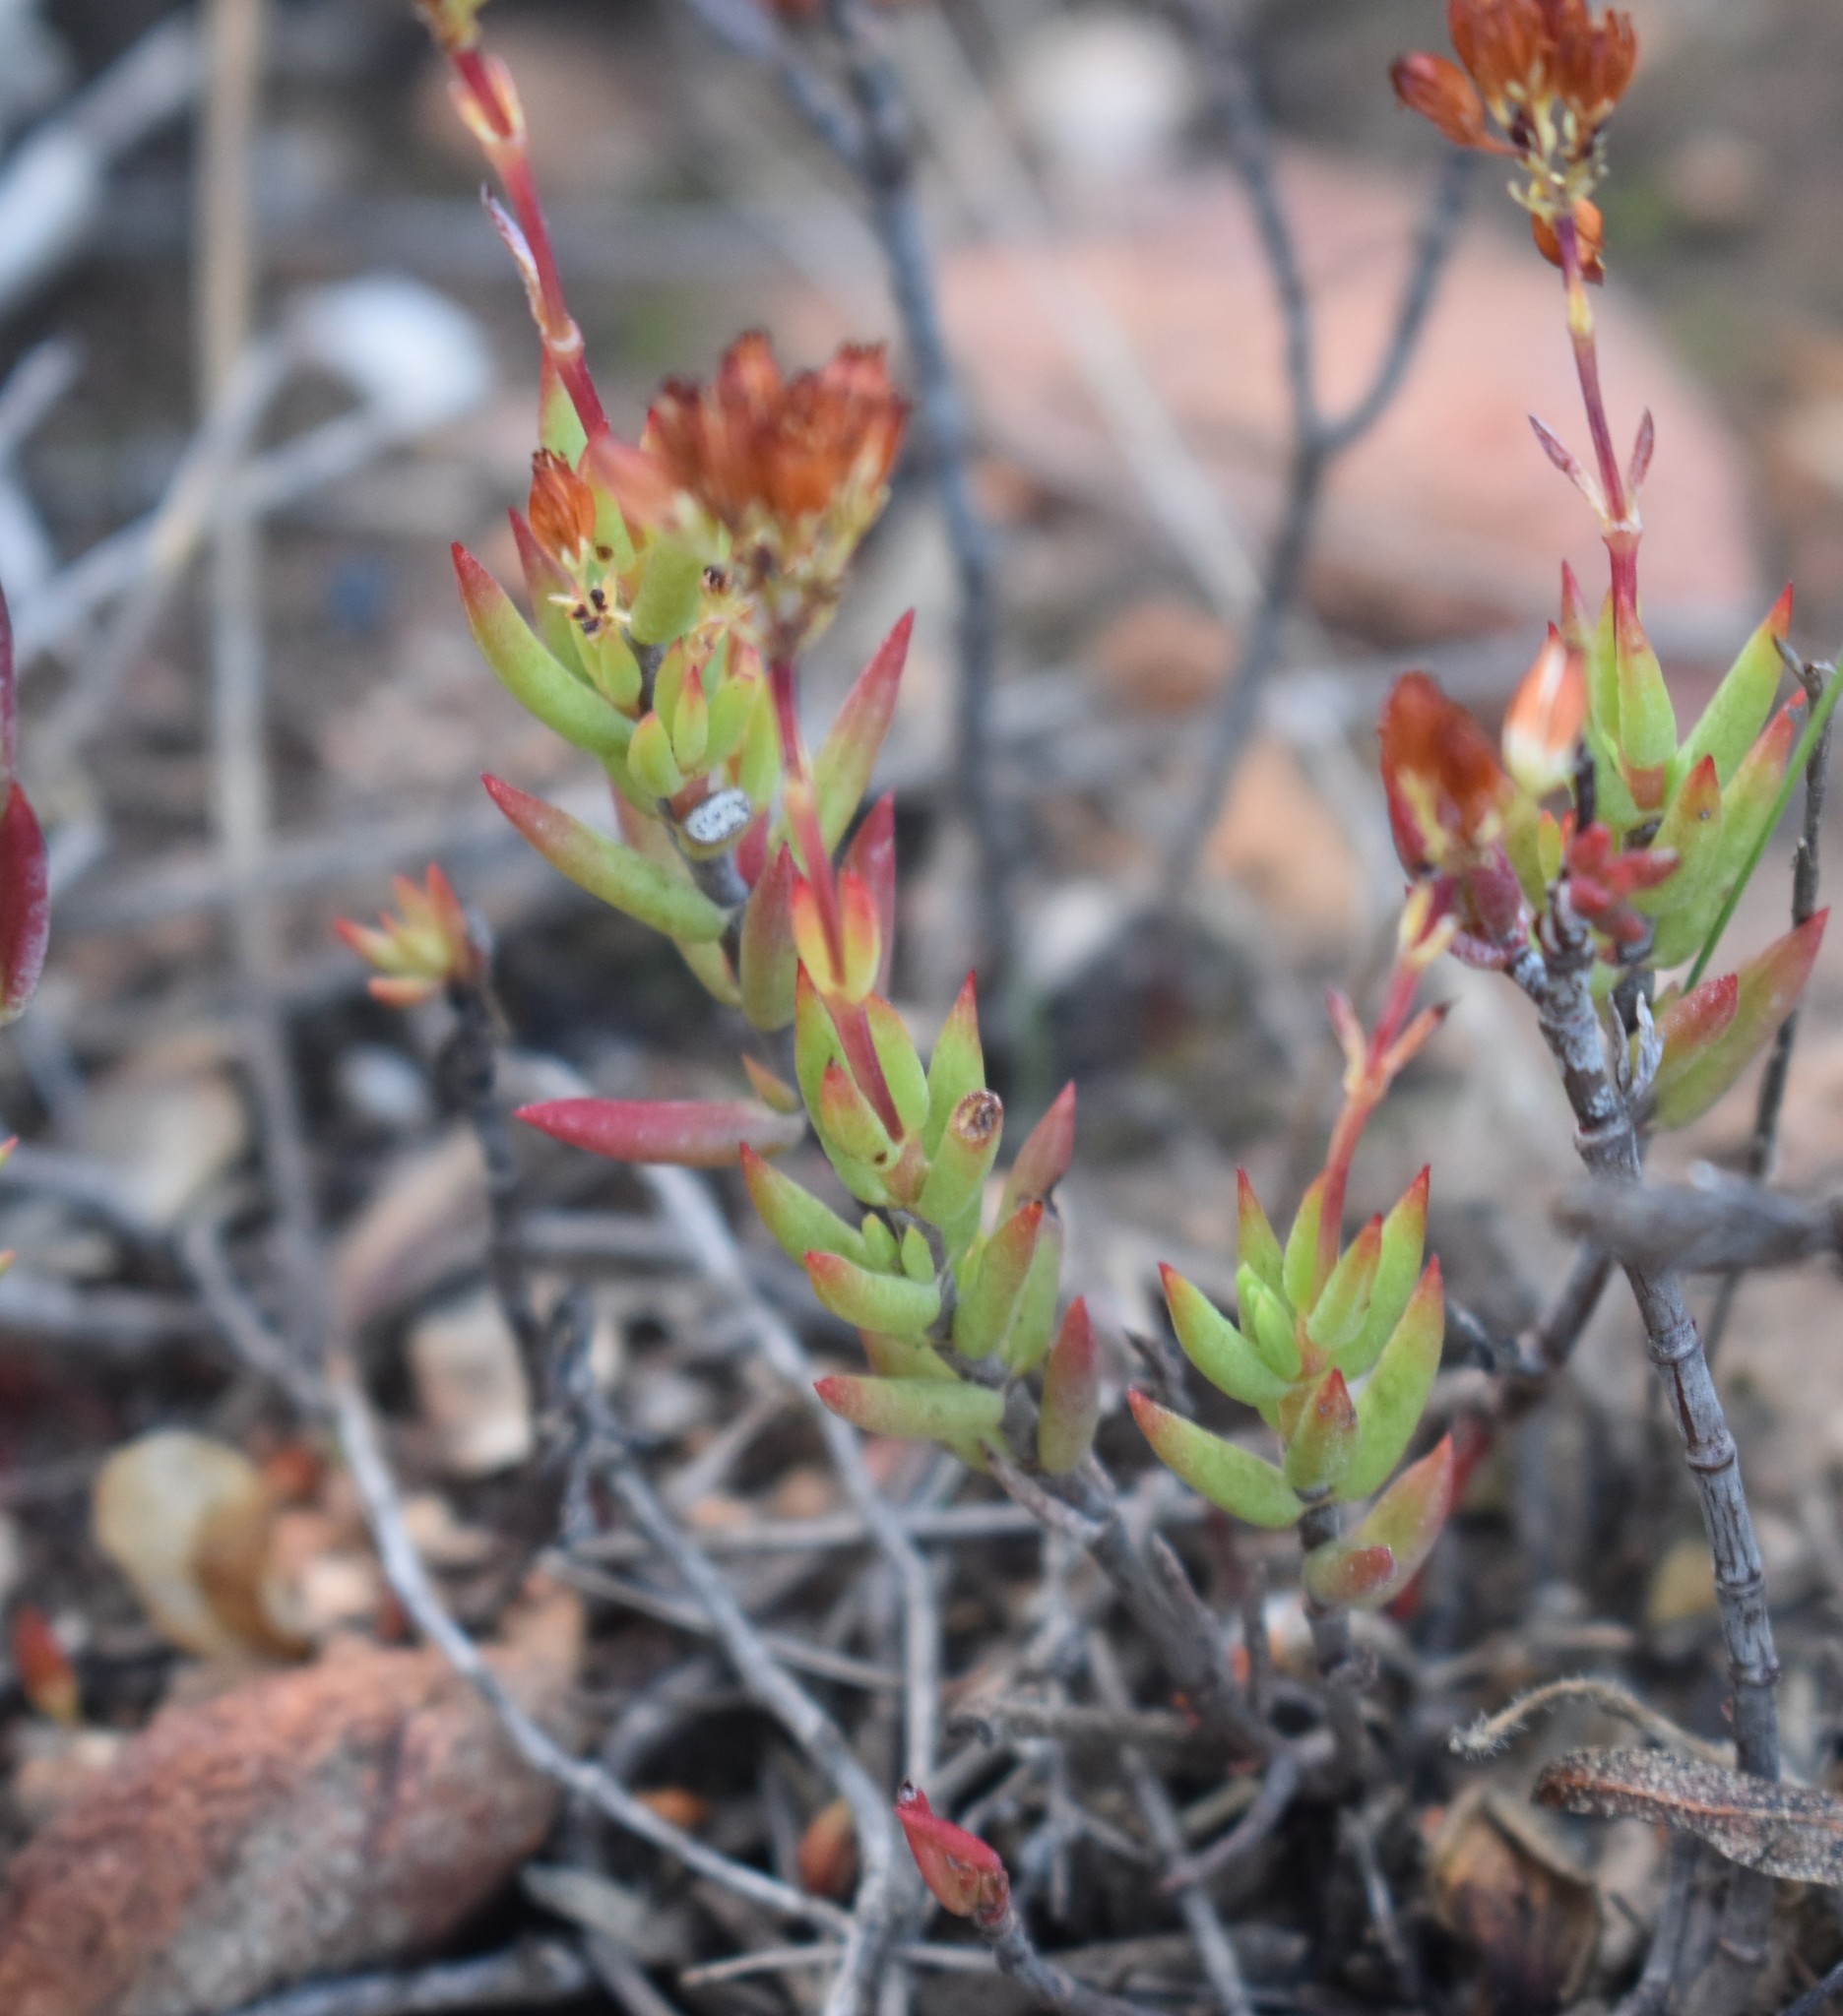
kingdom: Plantae
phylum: Tracheophyta
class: Magnoliopsida
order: Saxifragales
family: Crassulaceae
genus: Crassula
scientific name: Crassula biplanata
